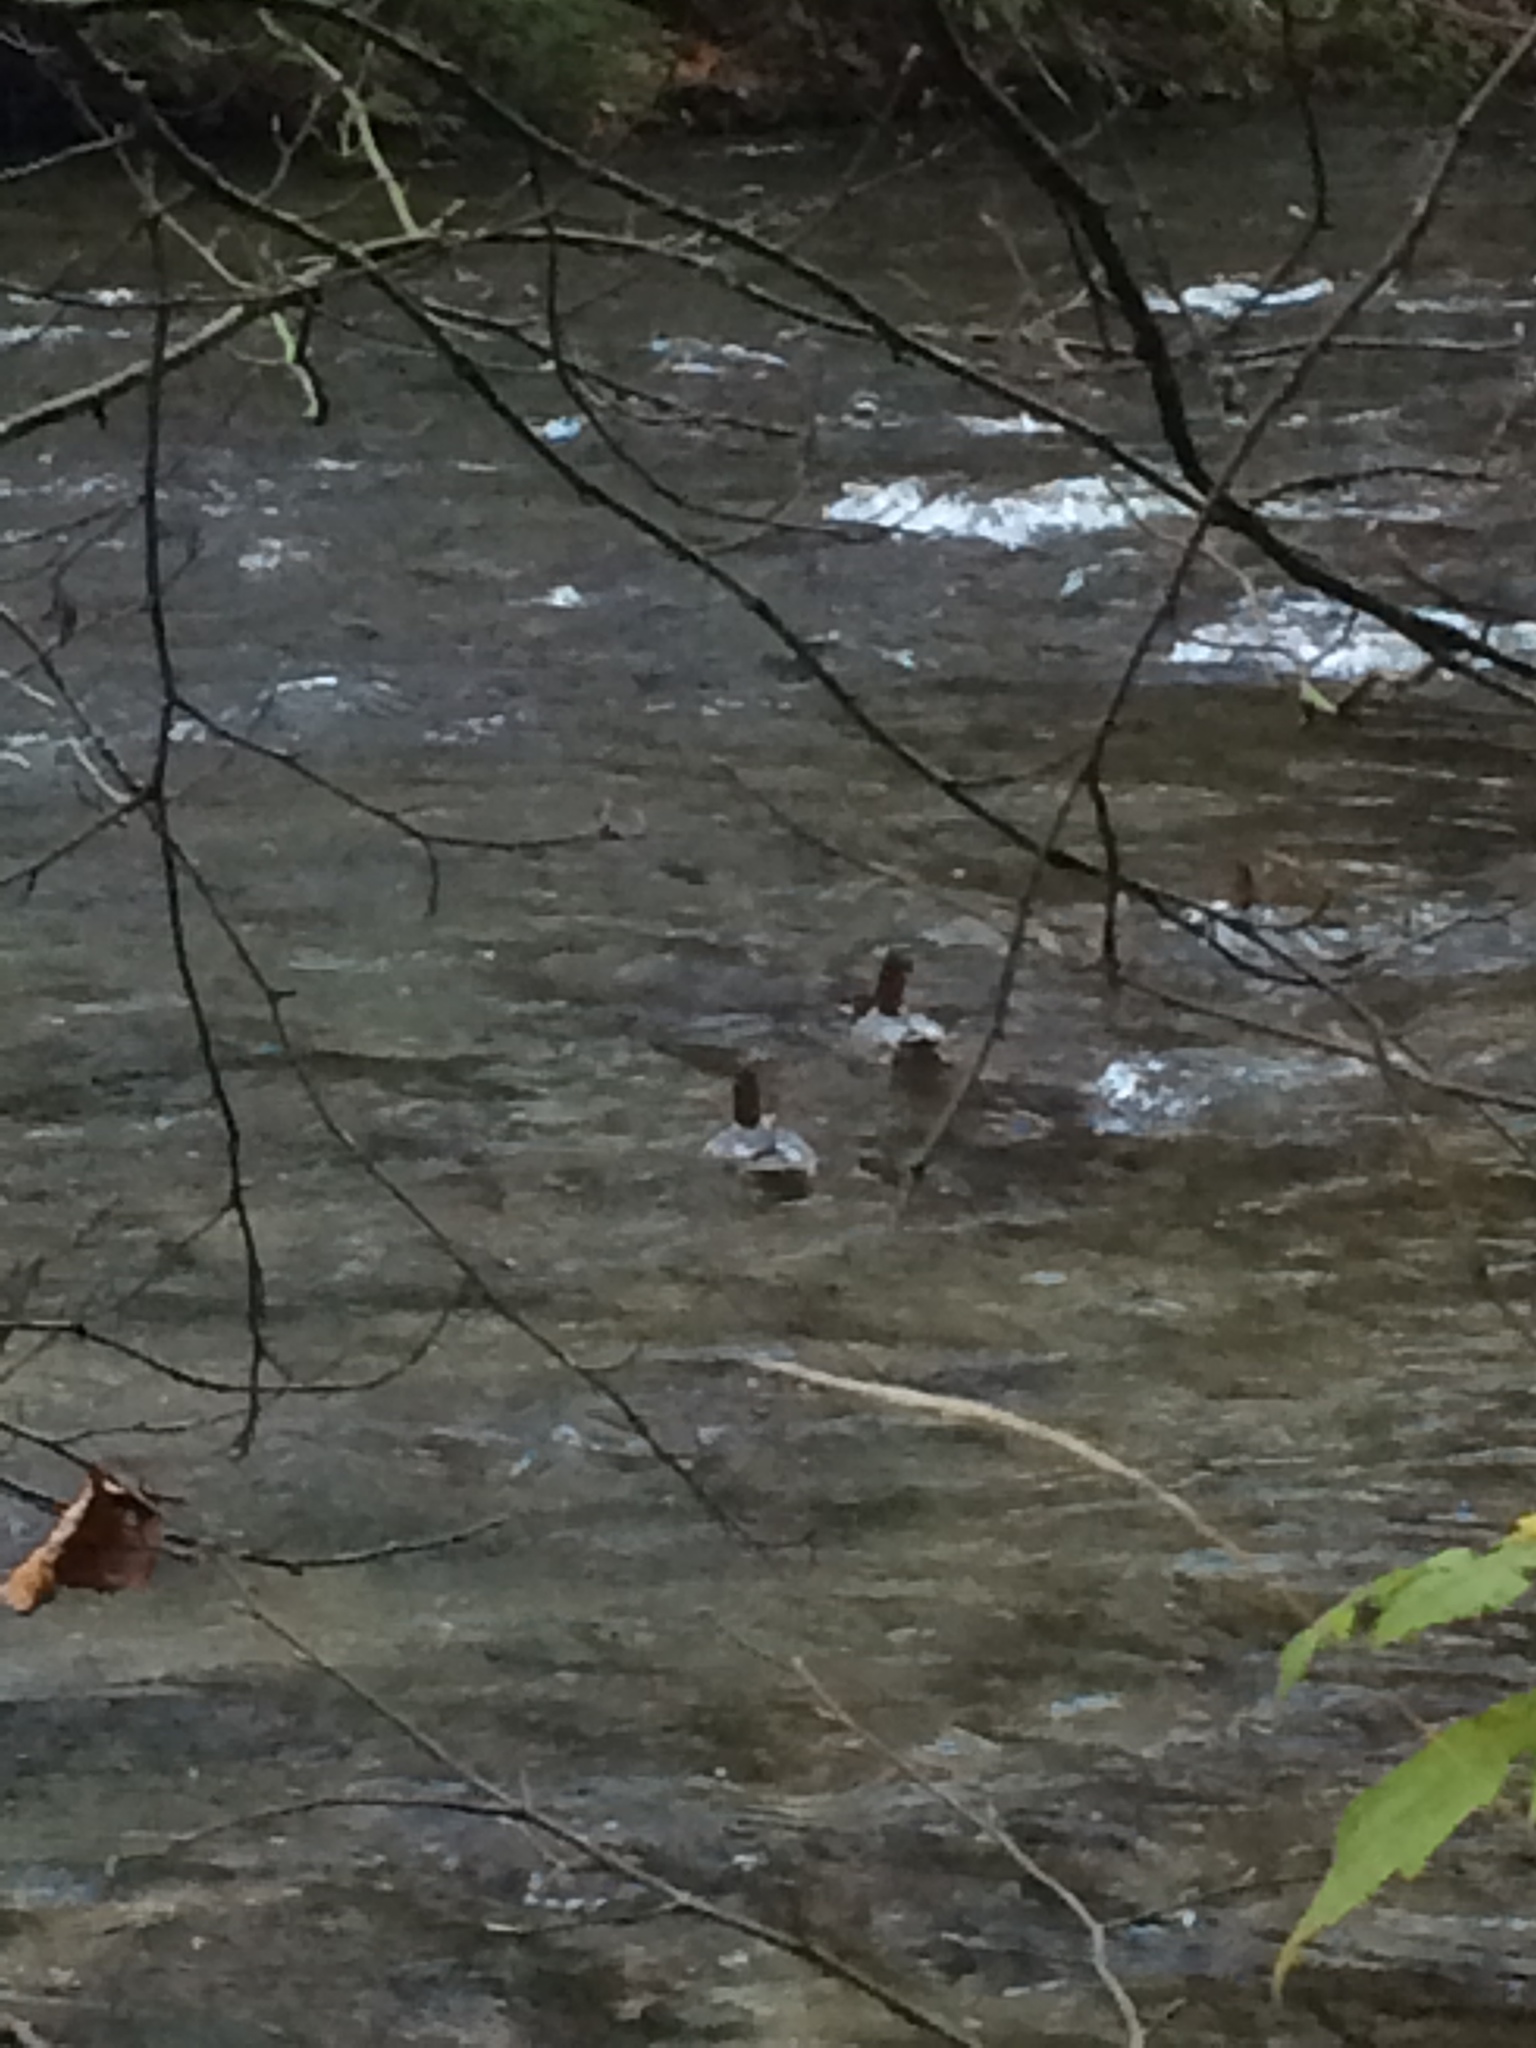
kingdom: Animalia
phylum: Chordata
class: Aves
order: Anseriformes
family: Anatidae
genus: Mergus
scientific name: Mergus merganser
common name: Common merganser
